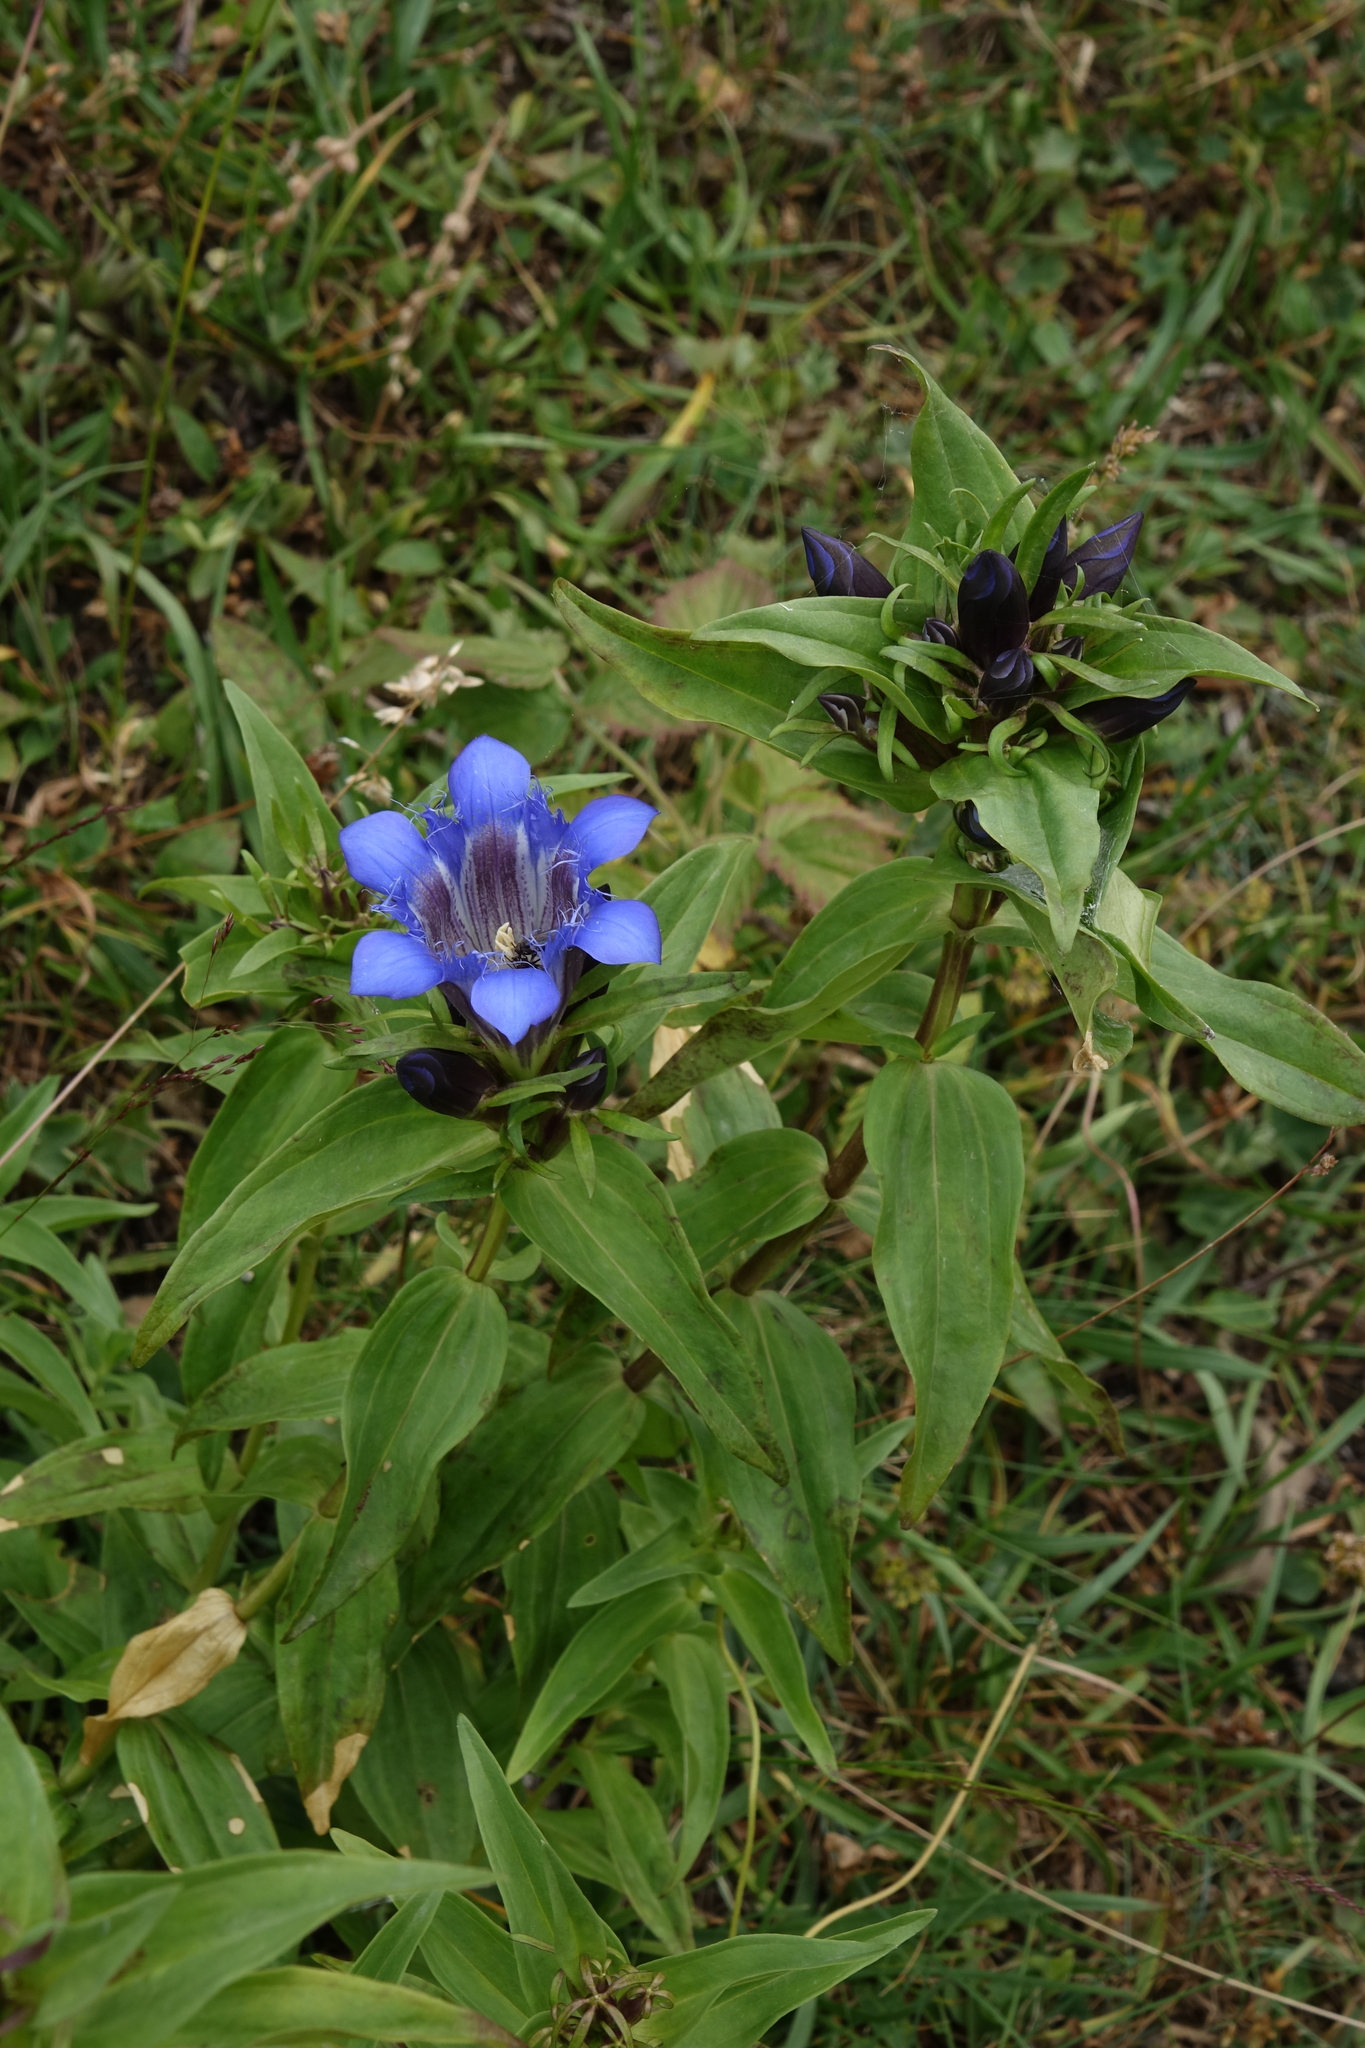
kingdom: Plantae
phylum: Tracheophyta
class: Magnoliopsida
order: Gentianales
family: Gentianaceae
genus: Gentiana
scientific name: Gentiana septemfida
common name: Crested gentian
